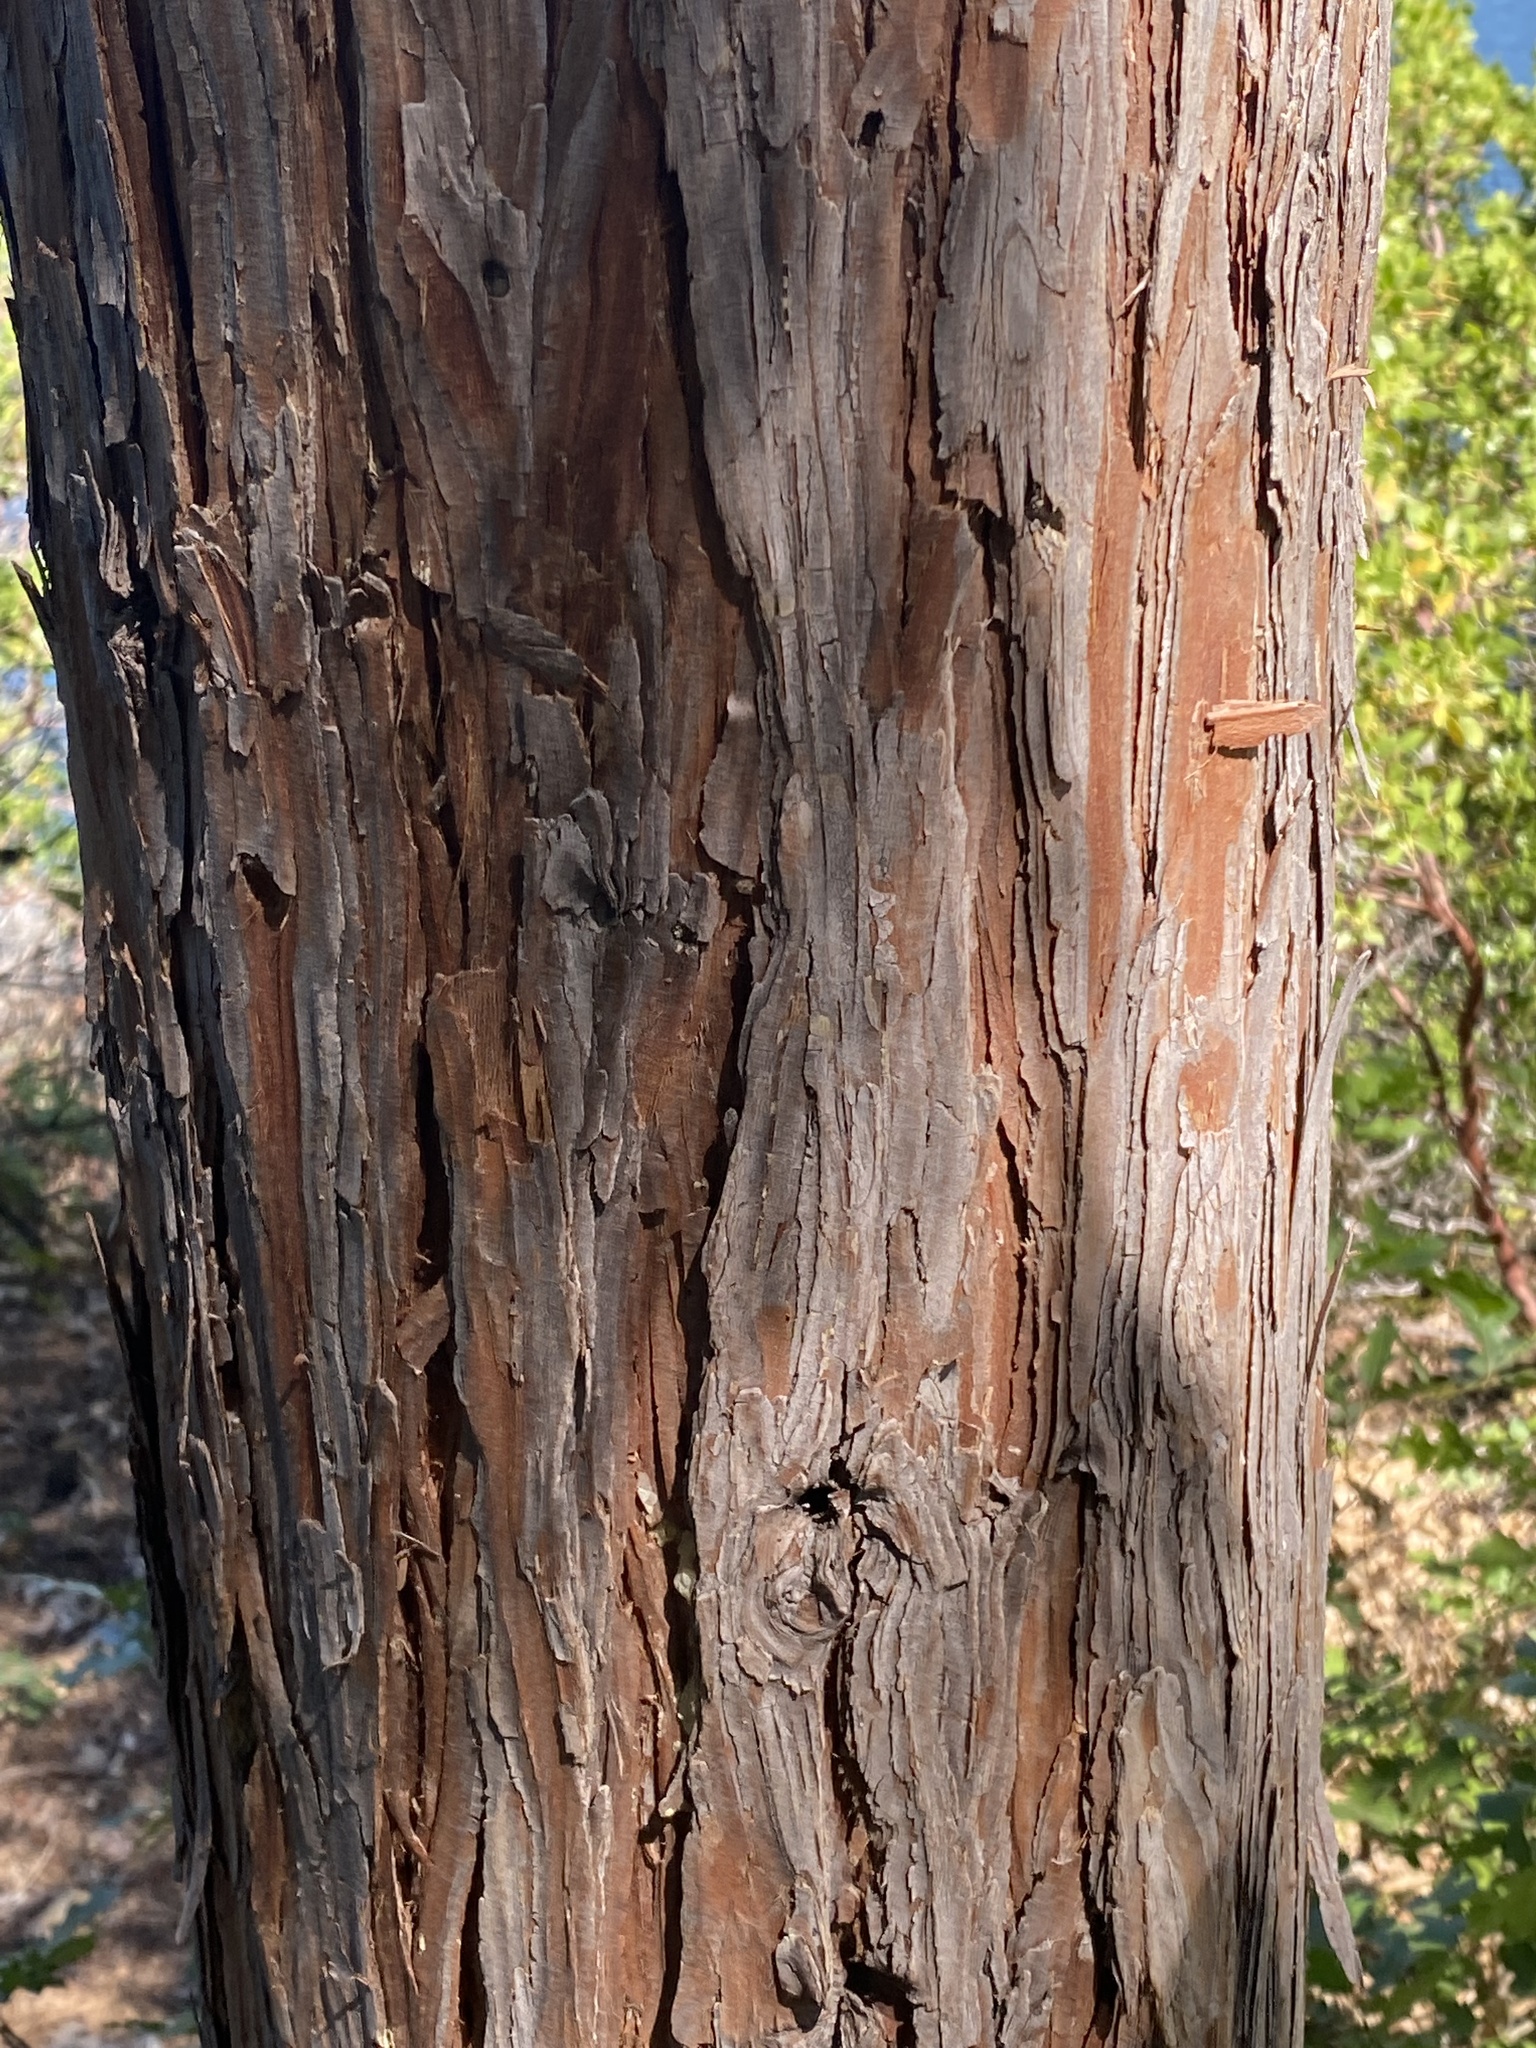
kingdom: Plantae
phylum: Tracheophyta
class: Pinopsida
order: Pinales
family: Cupressaceae
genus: Calocedrus
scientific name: Calocedrus decurrens
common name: Californian incense-cedar
